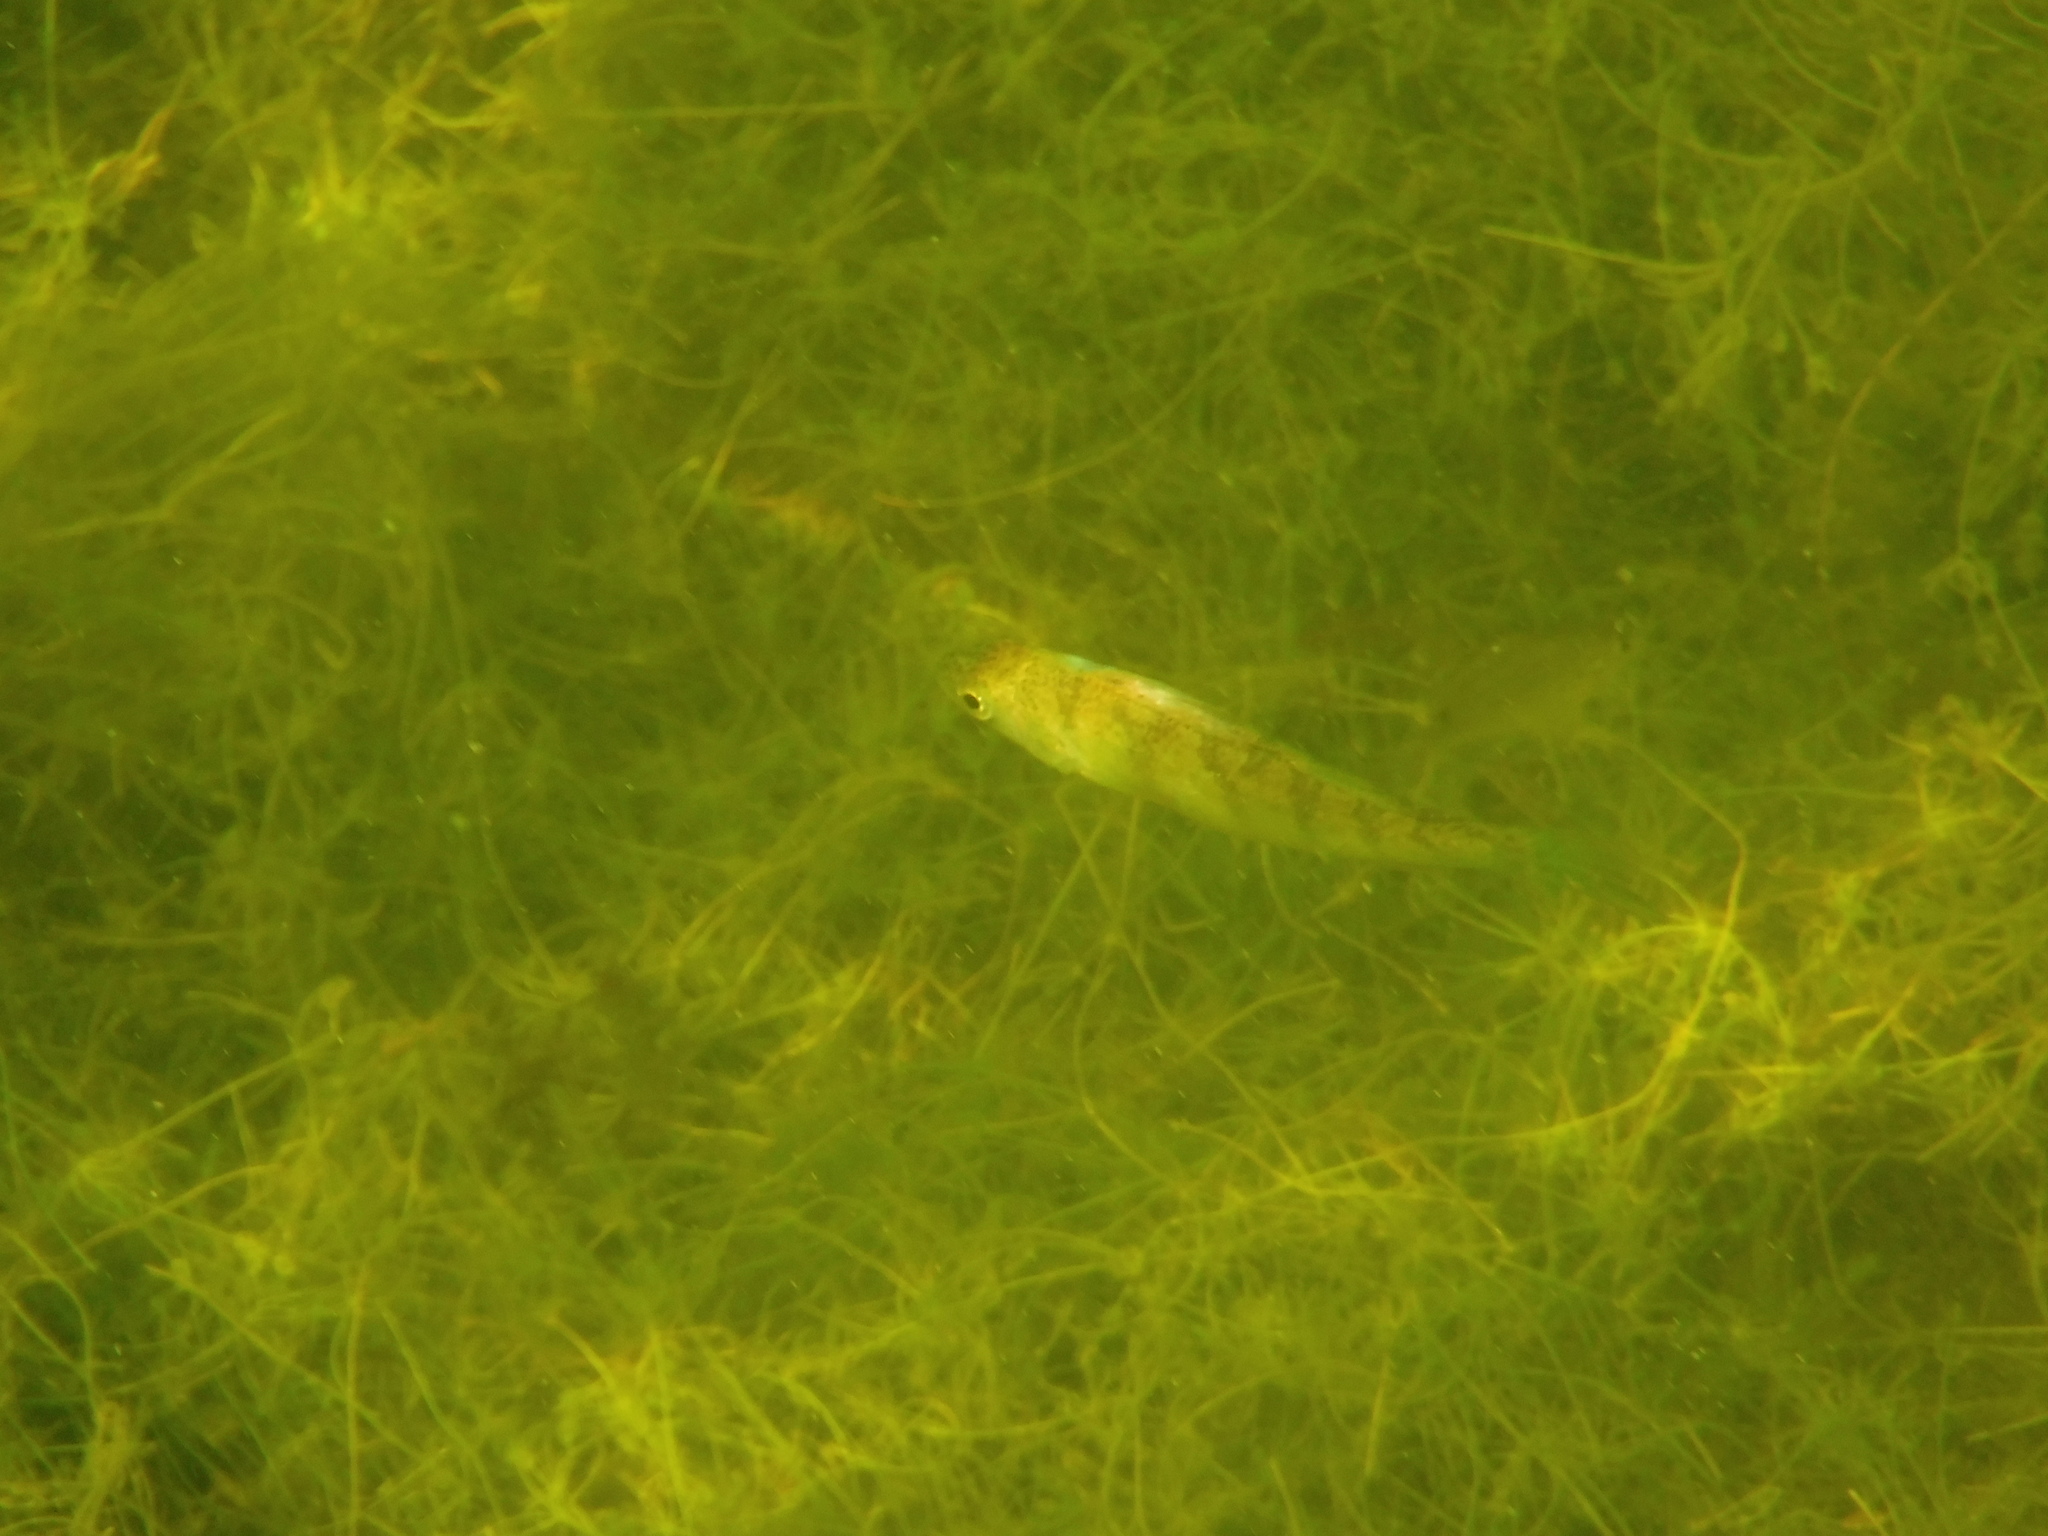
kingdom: Animalia
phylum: Chordata
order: Perciformes
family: Percidae
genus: Perca
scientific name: Perca flavescens
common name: Yellow perch
